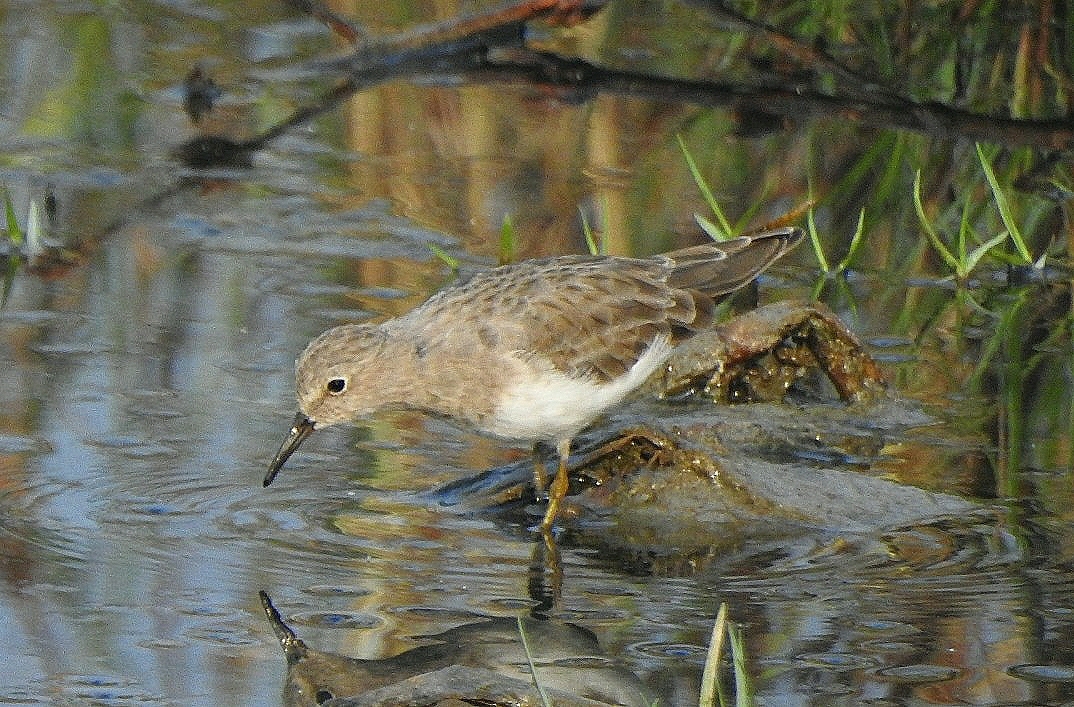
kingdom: Animalia
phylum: Chordata
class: Aves
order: Charadriiformes
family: Scolopacidae
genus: Calidris
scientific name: Calidris temminckii
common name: Temminck's stint
